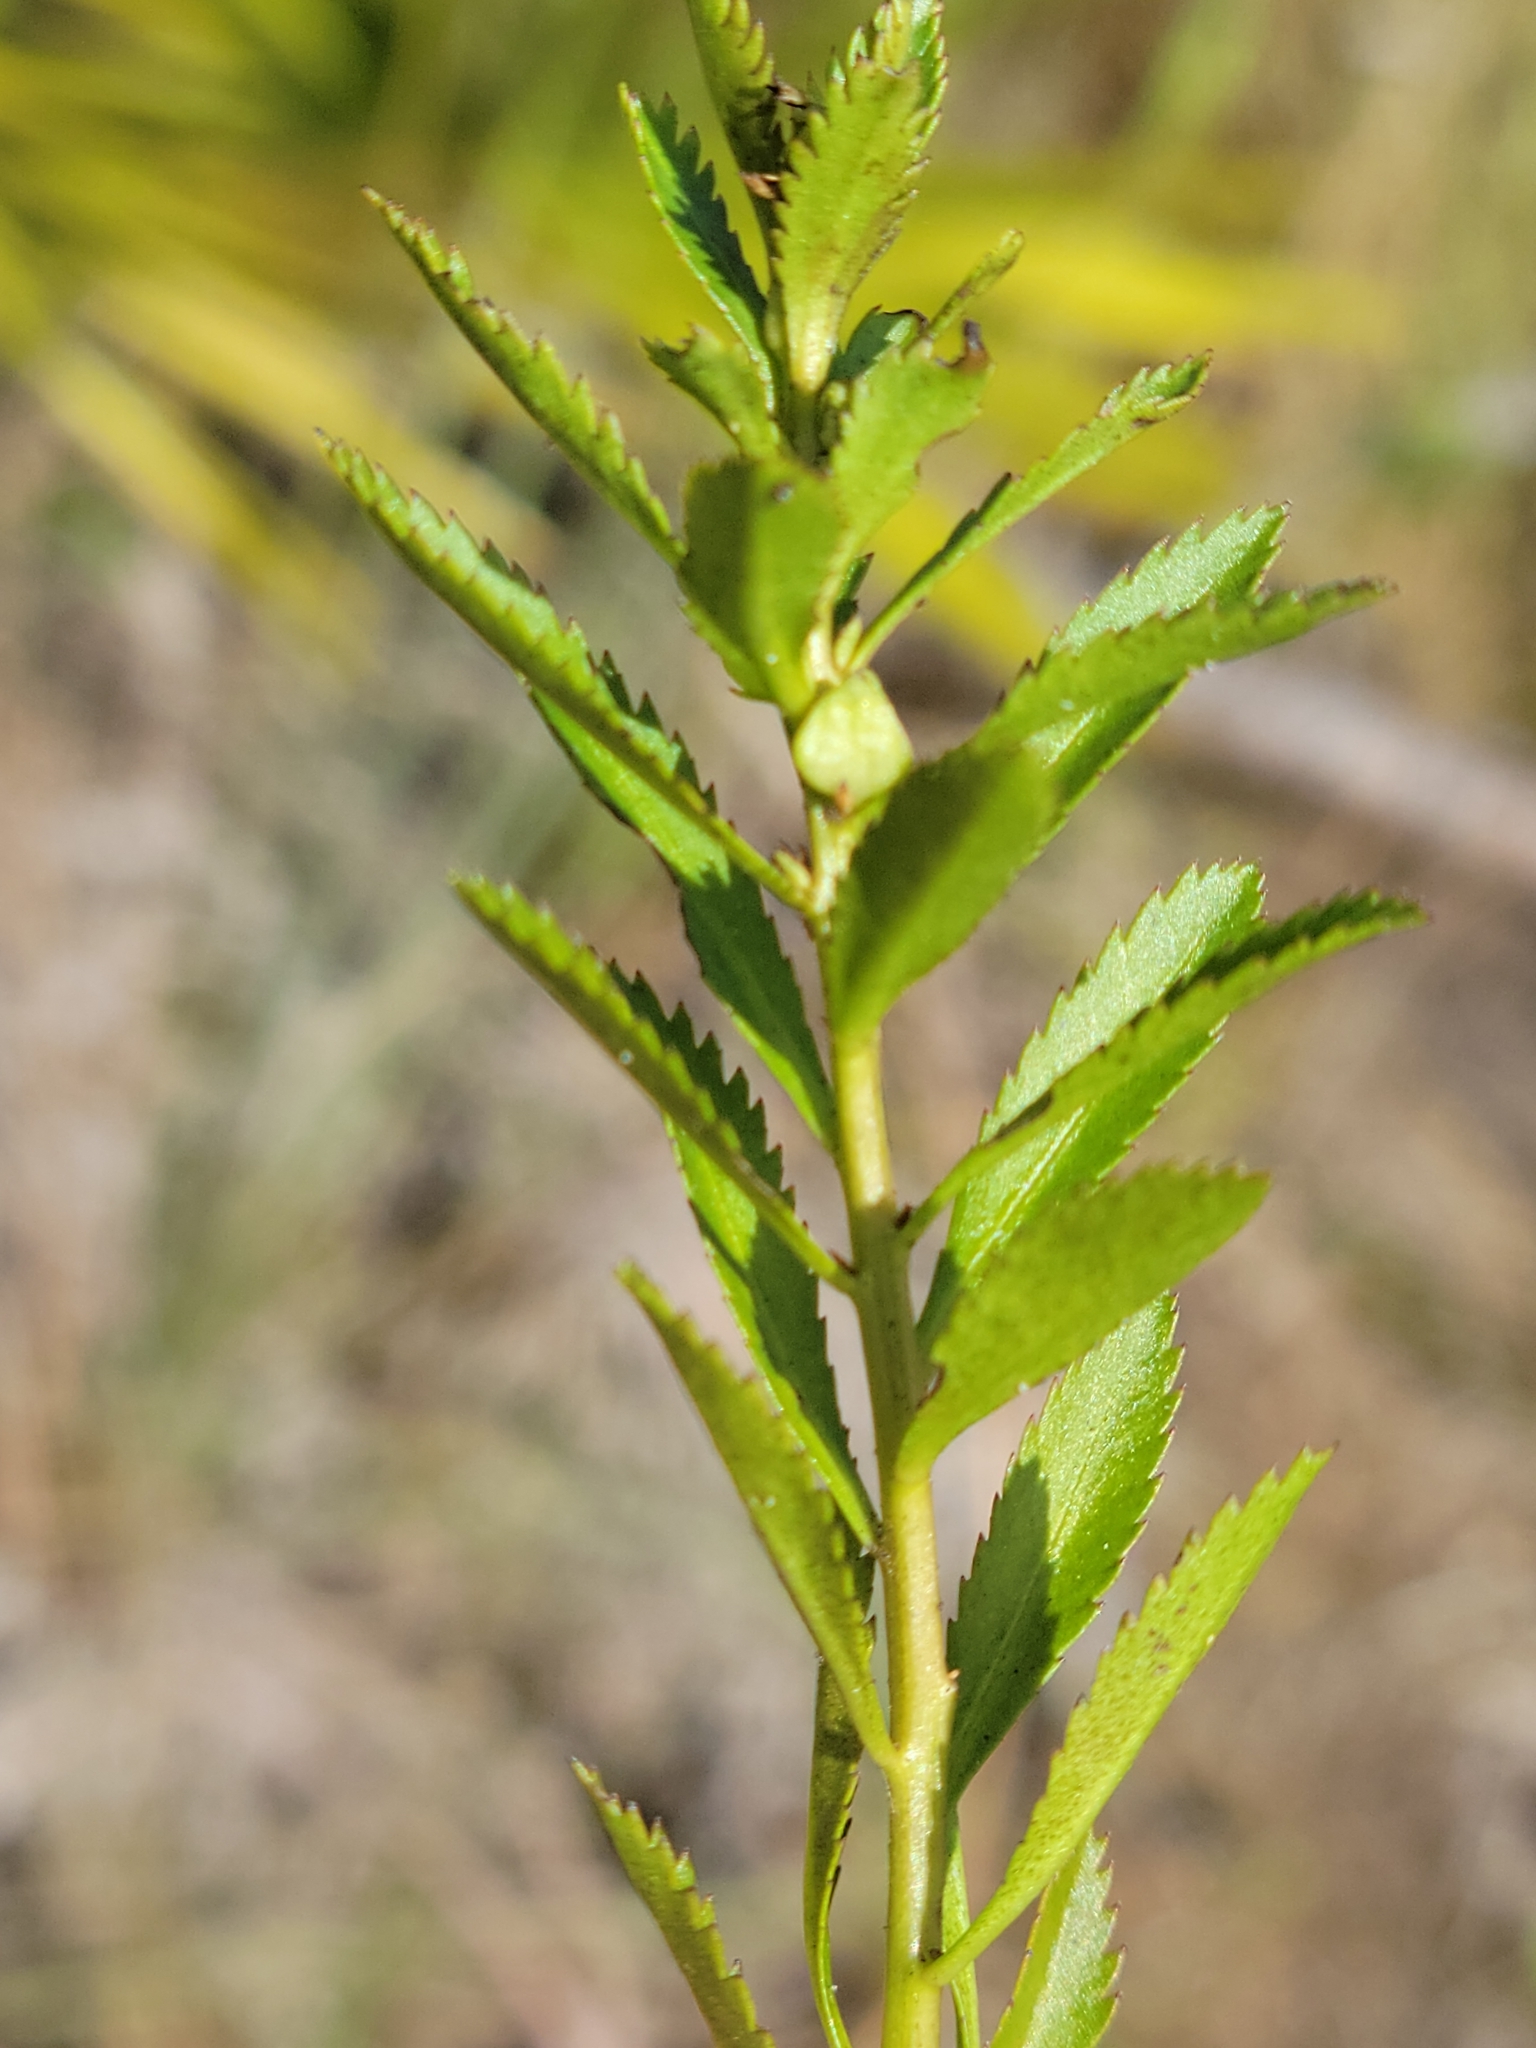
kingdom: Plantae
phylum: Tracheophyta
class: Magnoliopsida
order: Saxifragales
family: Haloragaceae
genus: Proserpinaca
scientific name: Proserpinaca palustris
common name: Marsh mermaidweed
